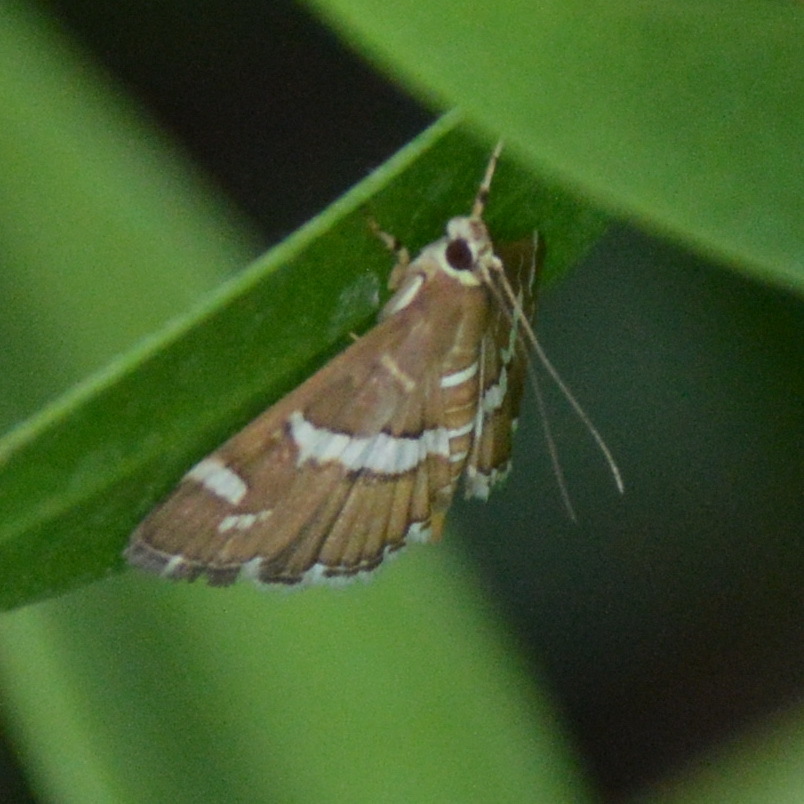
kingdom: Animalia
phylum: Arthropoda
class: Insecta
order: Lepidoptera
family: Crambidae
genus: Spoladea
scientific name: Spoladea recurvalis
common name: Beet webworm moth
